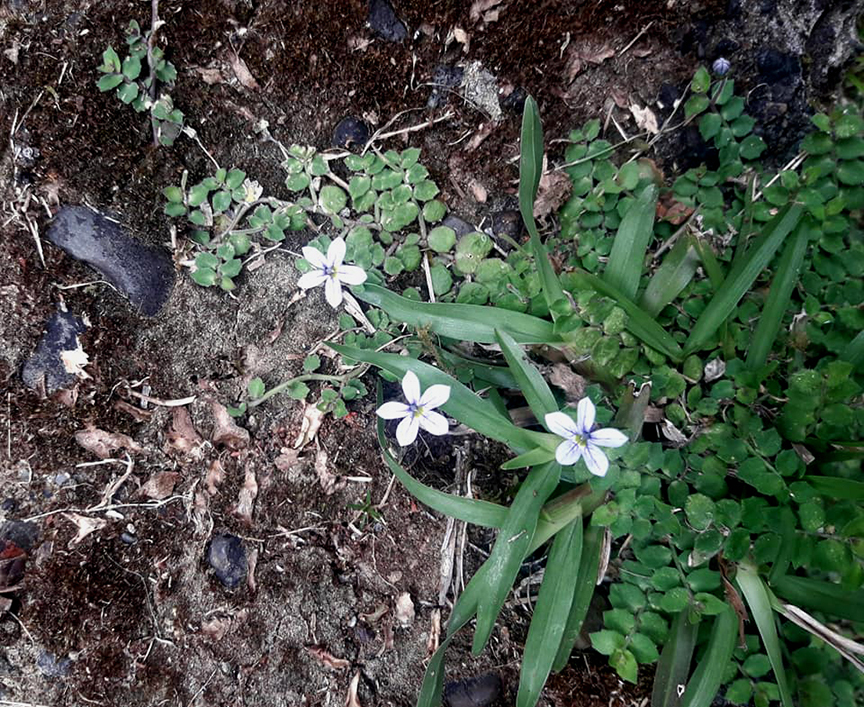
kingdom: Plantae
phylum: Tracheophyta
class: Magnoliopsida
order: Asterales
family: Campanulaceae
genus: Lobelia
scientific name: Lobelia pedunculata
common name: Matted pratia
